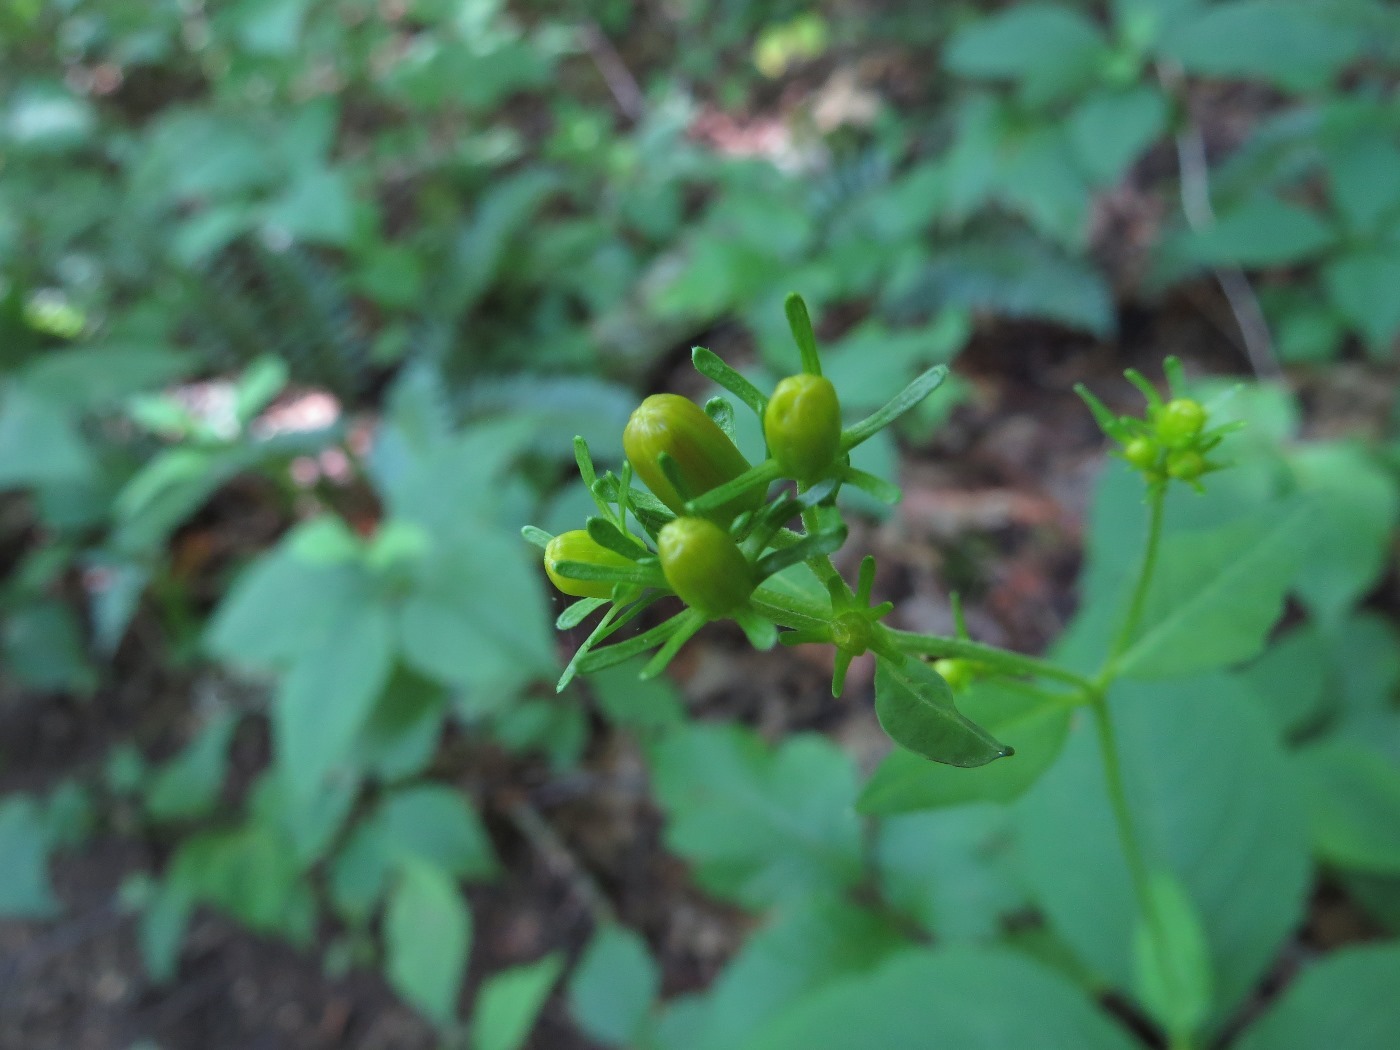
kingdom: Plantae
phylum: Tracheophyta
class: Magnoliopsida
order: Asterales
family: Asteraceae
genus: Coreopsis
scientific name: Coreopsis latifolia
